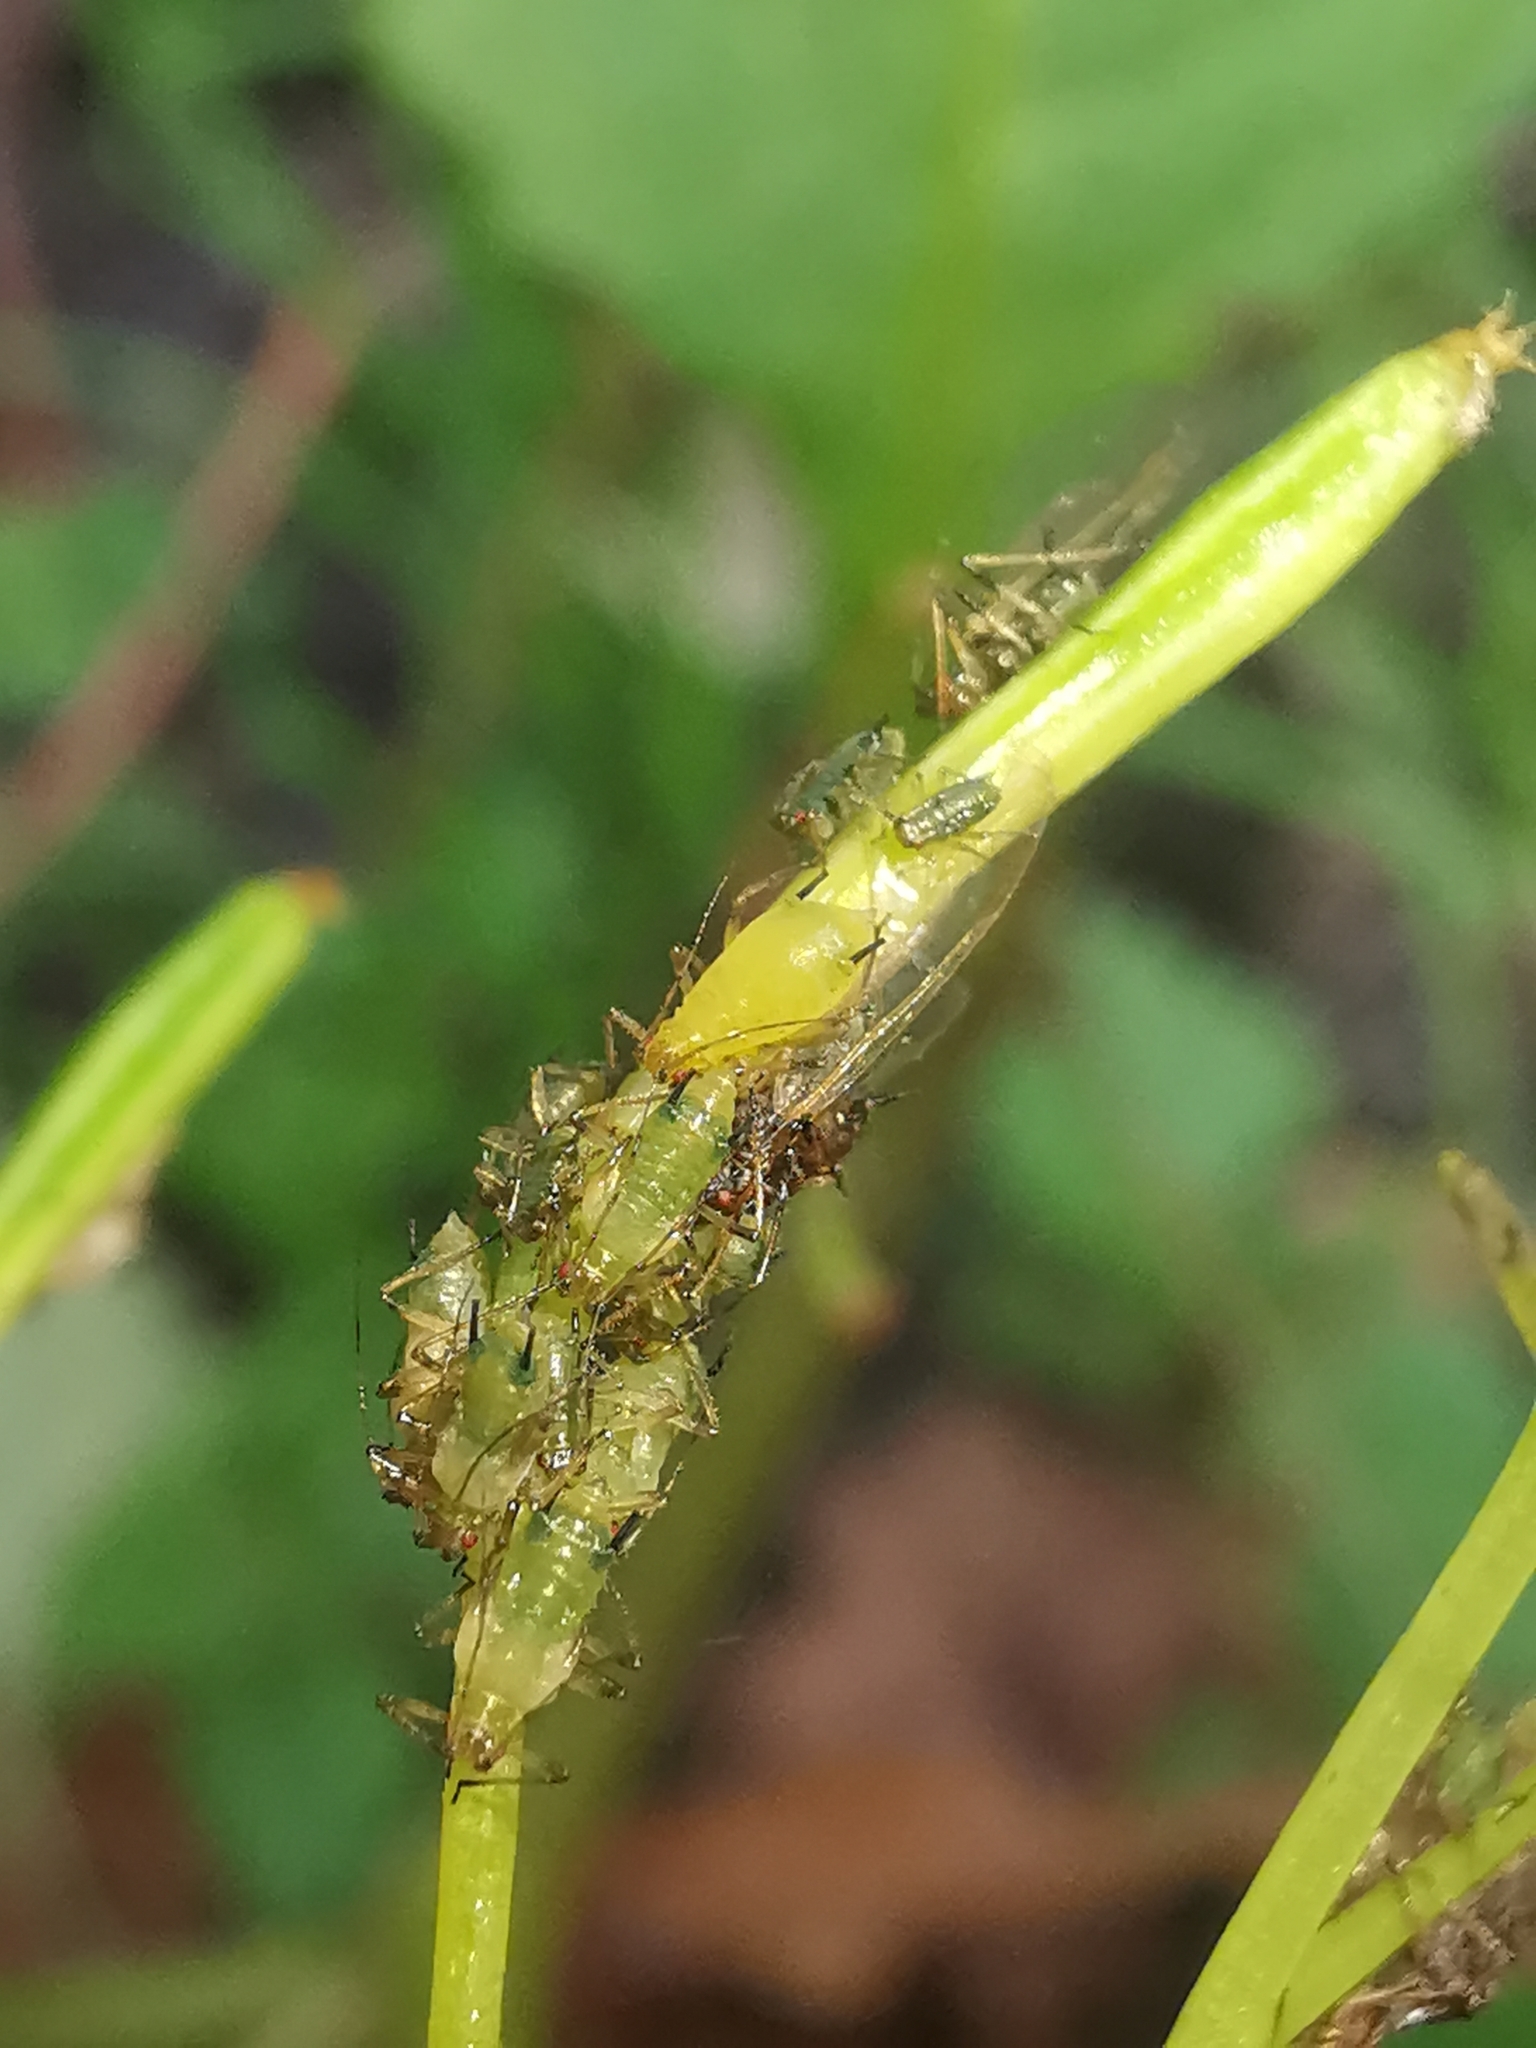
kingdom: Animalia
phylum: Arthropoda
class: Insecta
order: Hemiptera
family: Aphididae
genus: Impatientinum
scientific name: Impatientinum asiaticum
